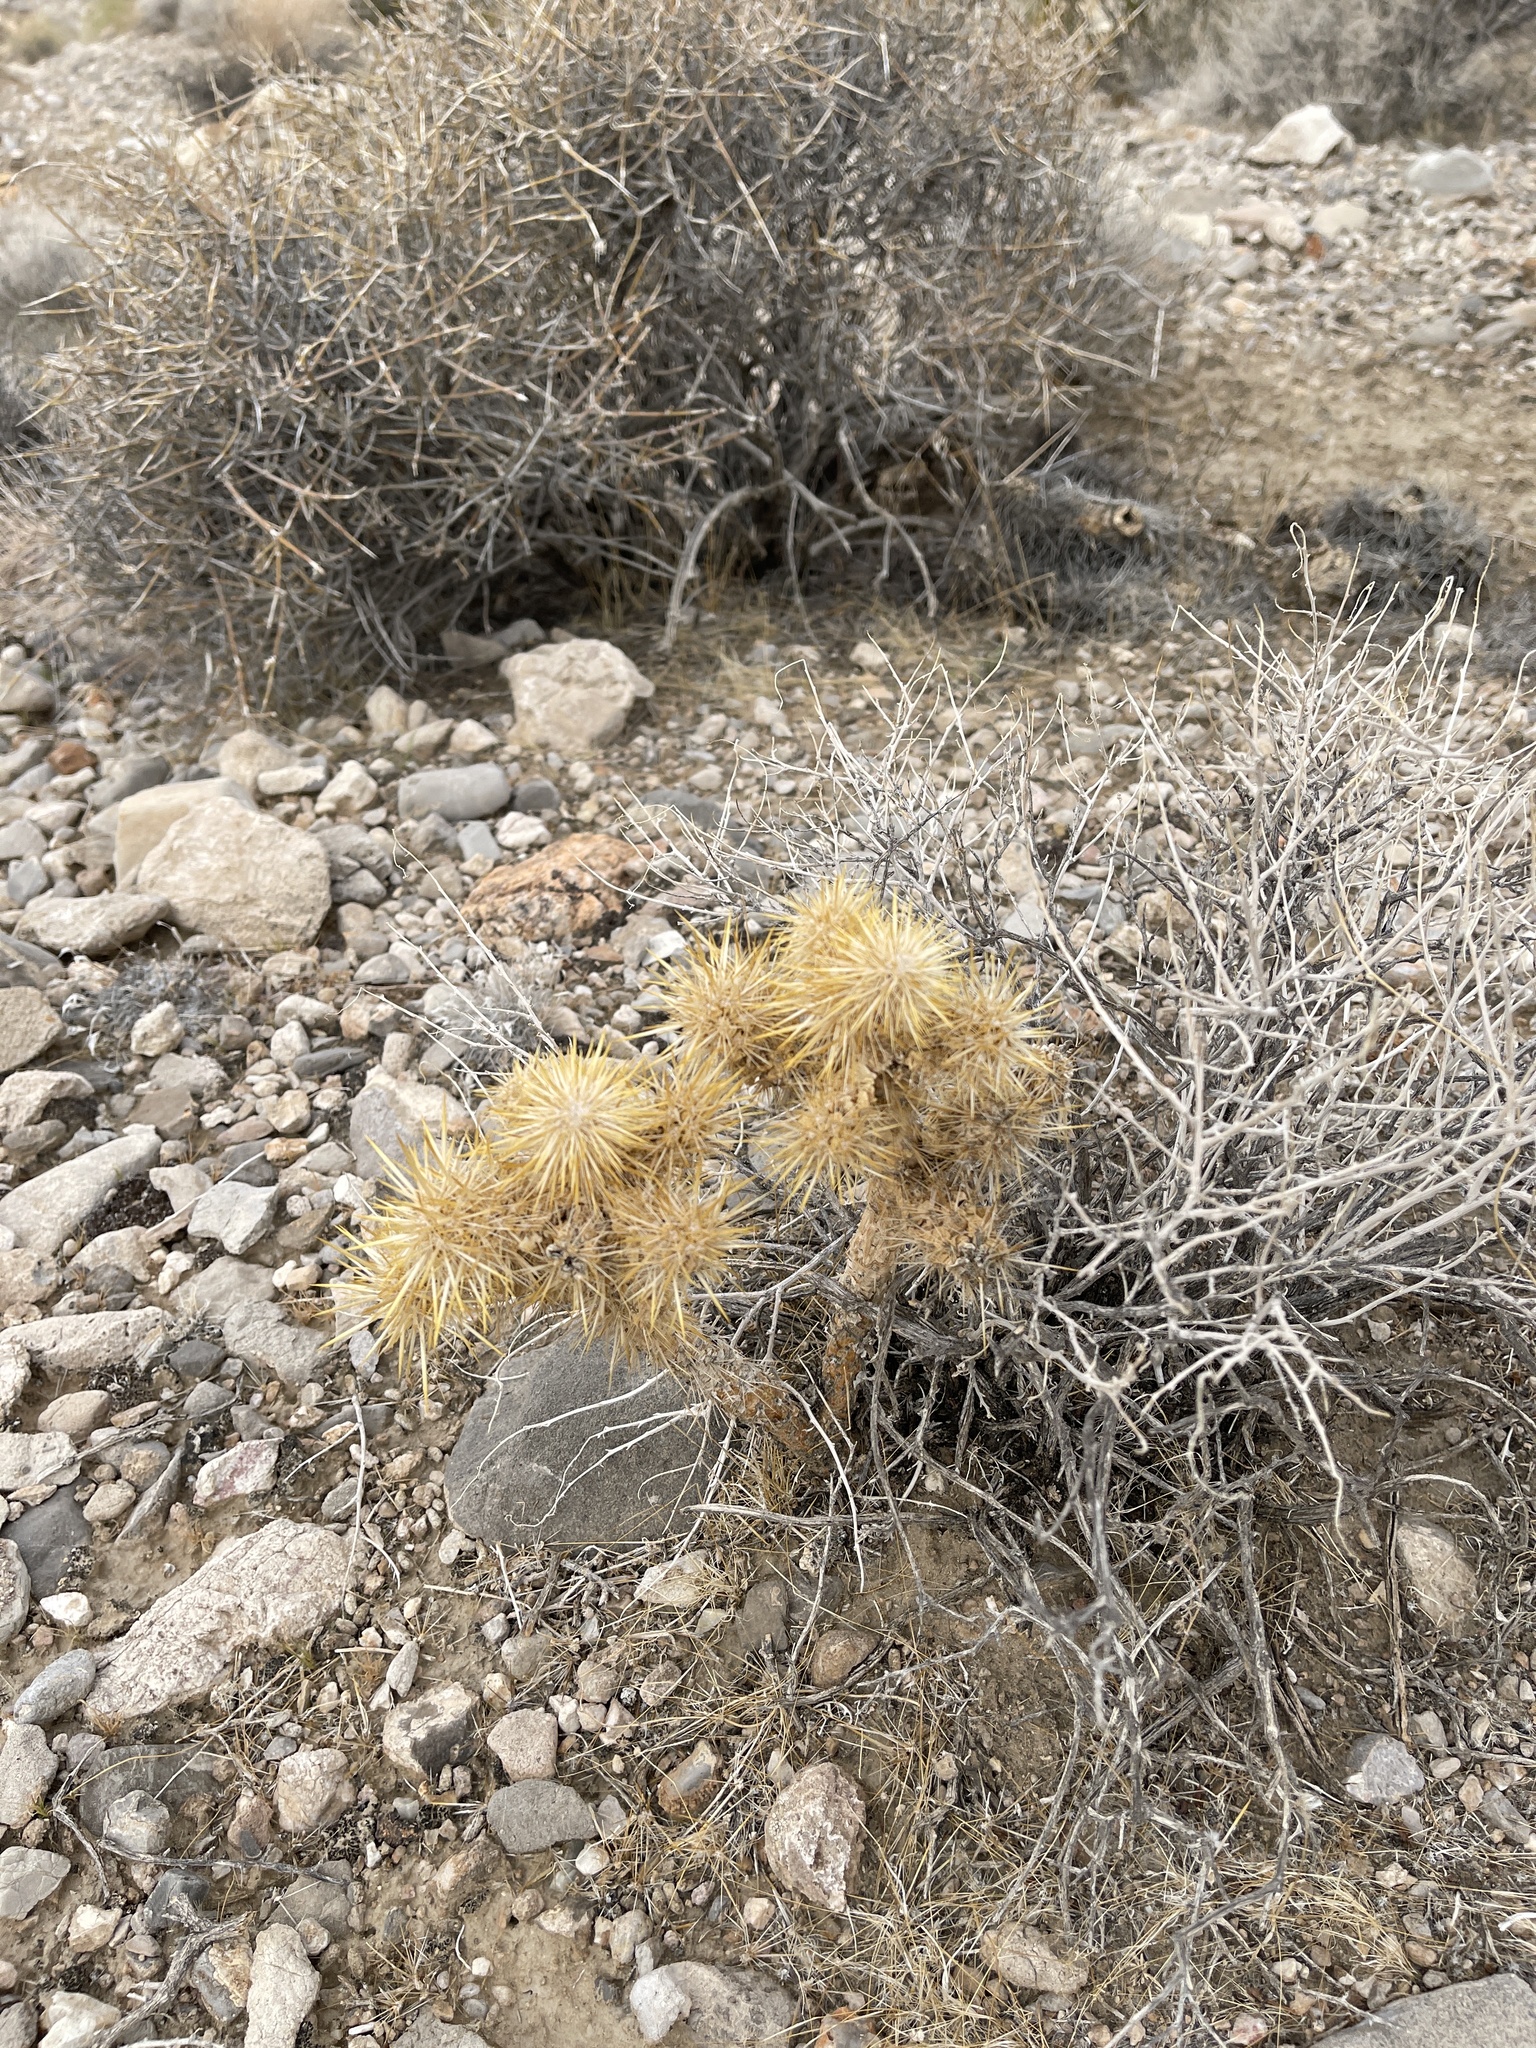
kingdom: Plantae
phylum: Tracheophyta
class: Magnoliopsida
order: Caryophyllales
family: Cactaceae
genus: Cylindropuntia
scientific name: Cylindropuntia echinocarpa
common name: Ground cholla
